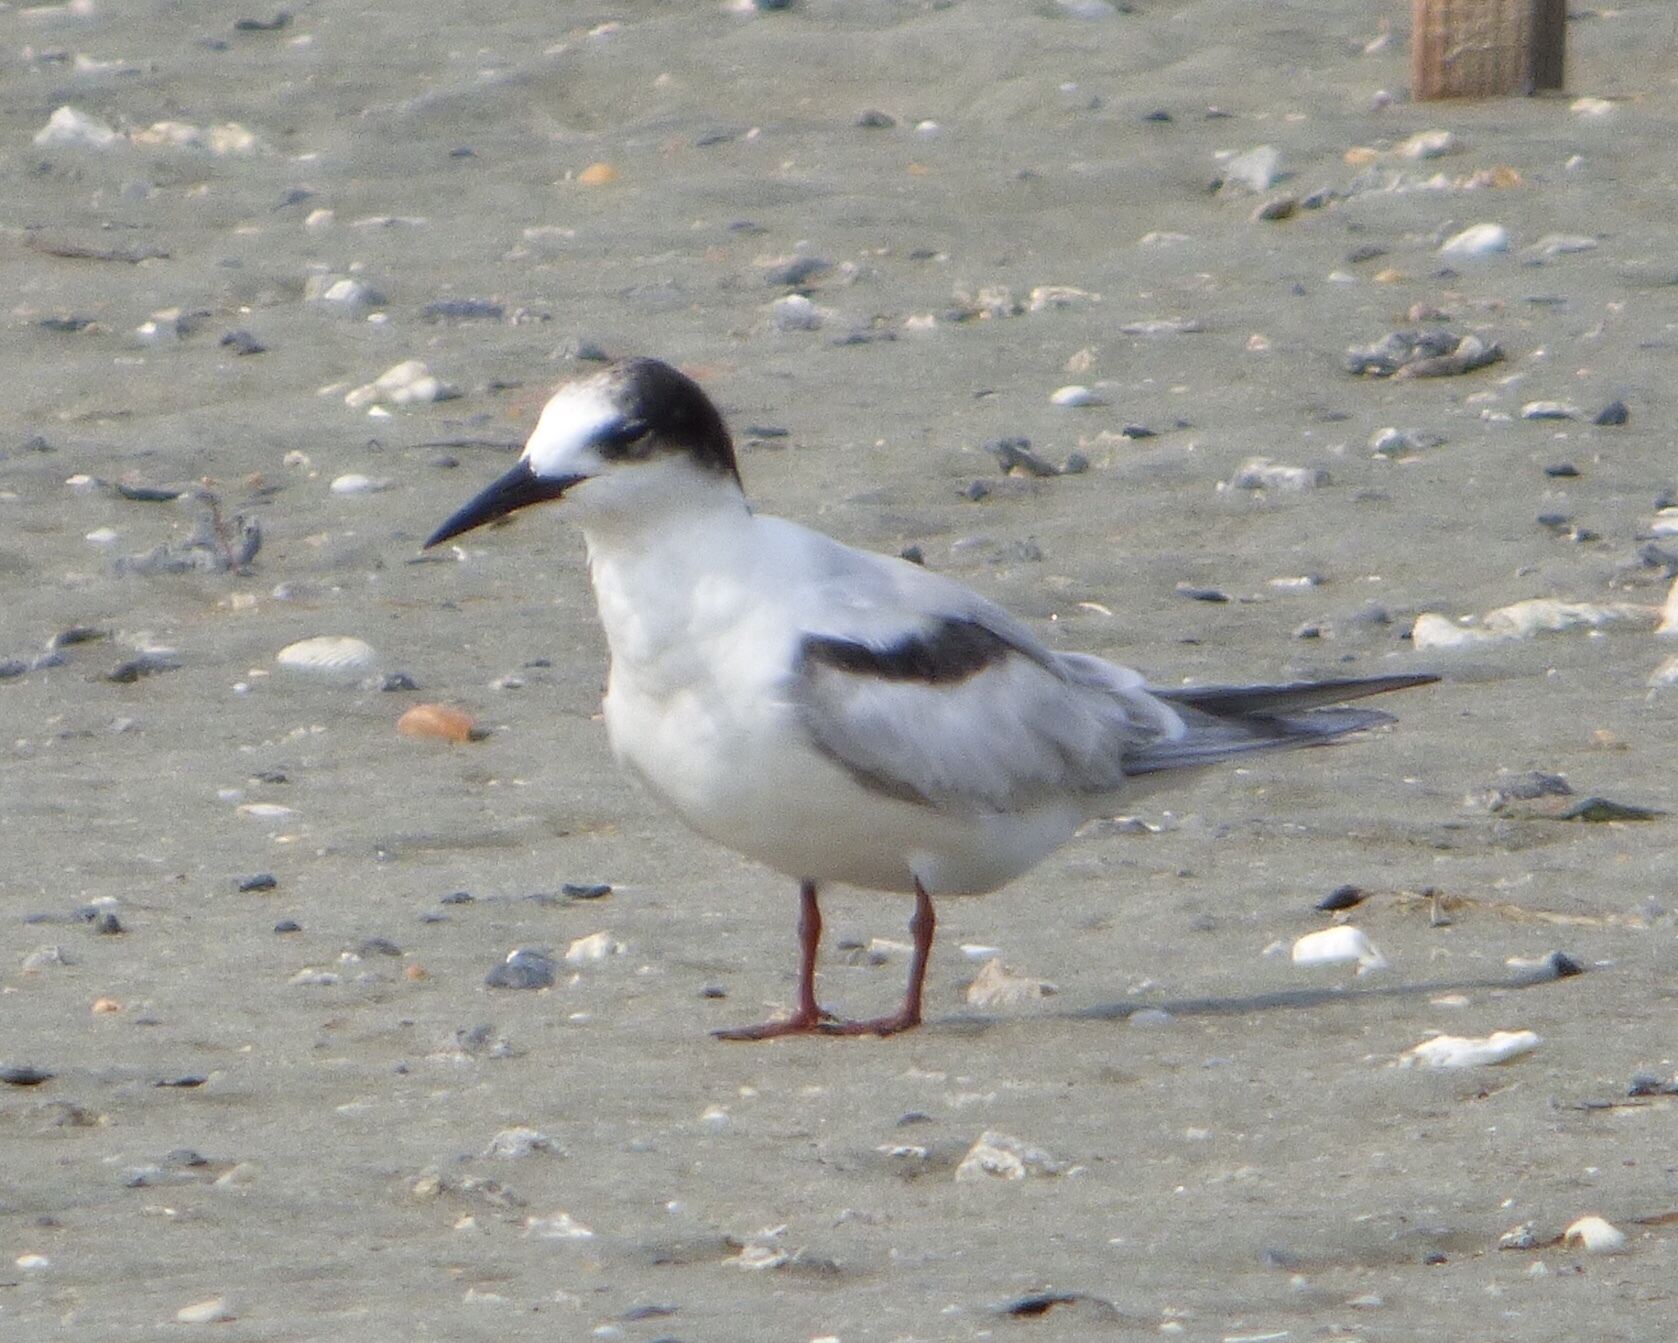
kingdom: Animalia
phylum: Chordata
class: Aves
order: Charadriiformes
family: Laridae
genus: Sterna
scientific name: Sterna hirundo
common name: Common tern
